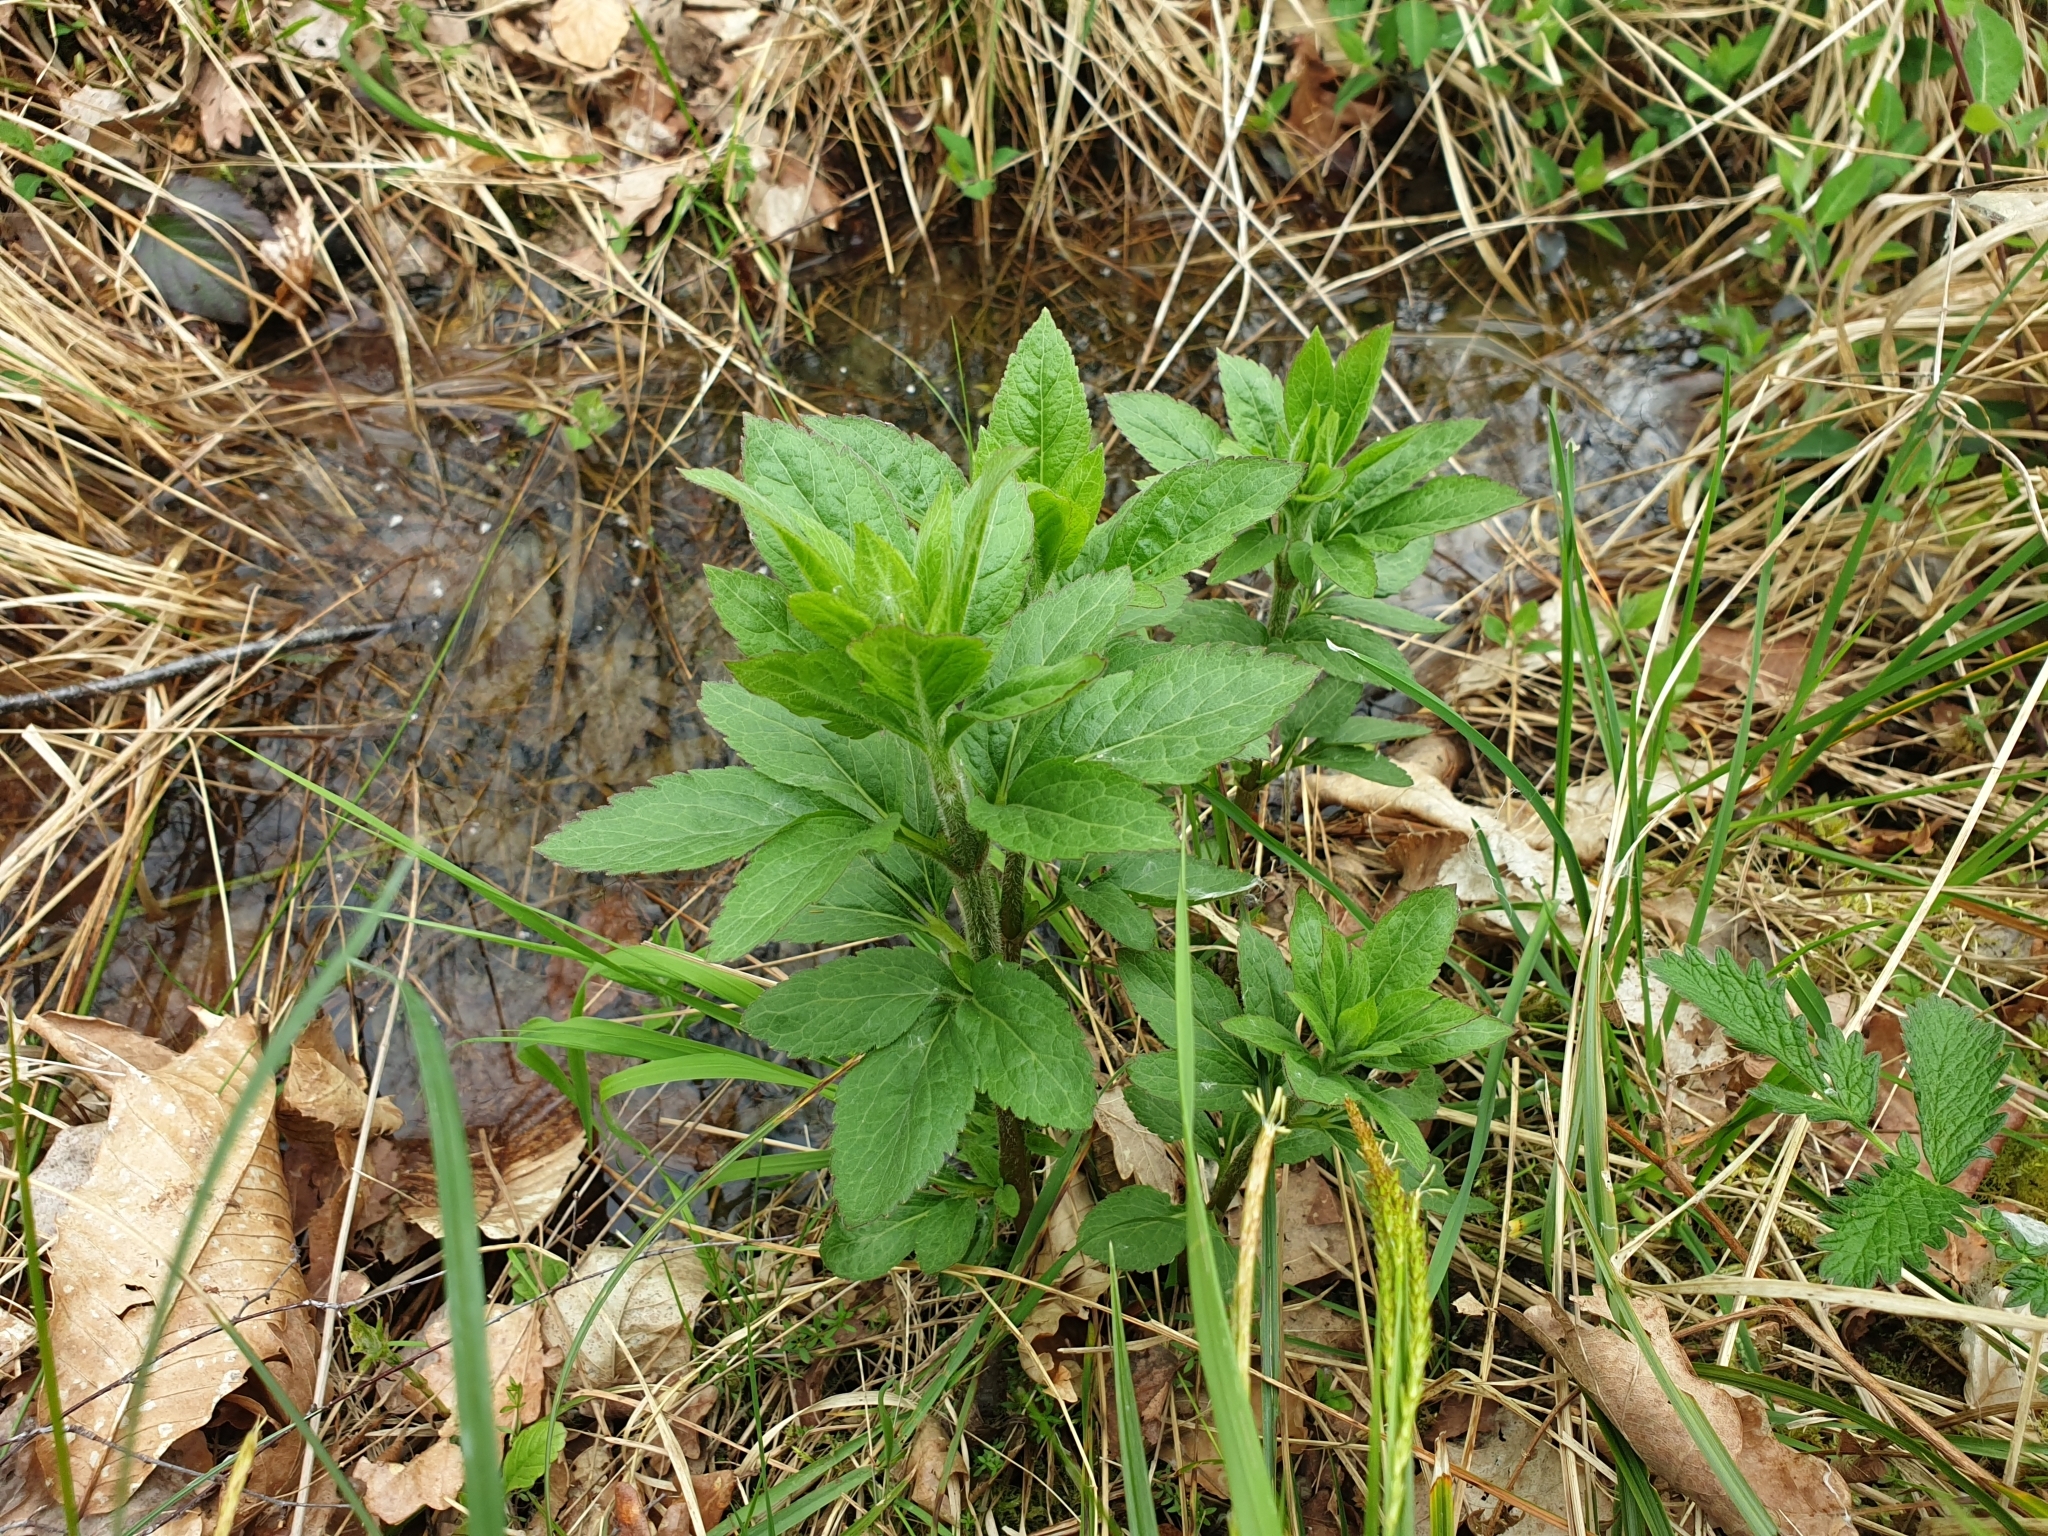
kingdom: Plantae
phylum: Tracheophyta
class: Magnoliopsida
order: Asterales
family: Asteraceae
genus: Eupatorium
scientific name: Eupatorium cannabinum
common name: Hemp-agrimony
